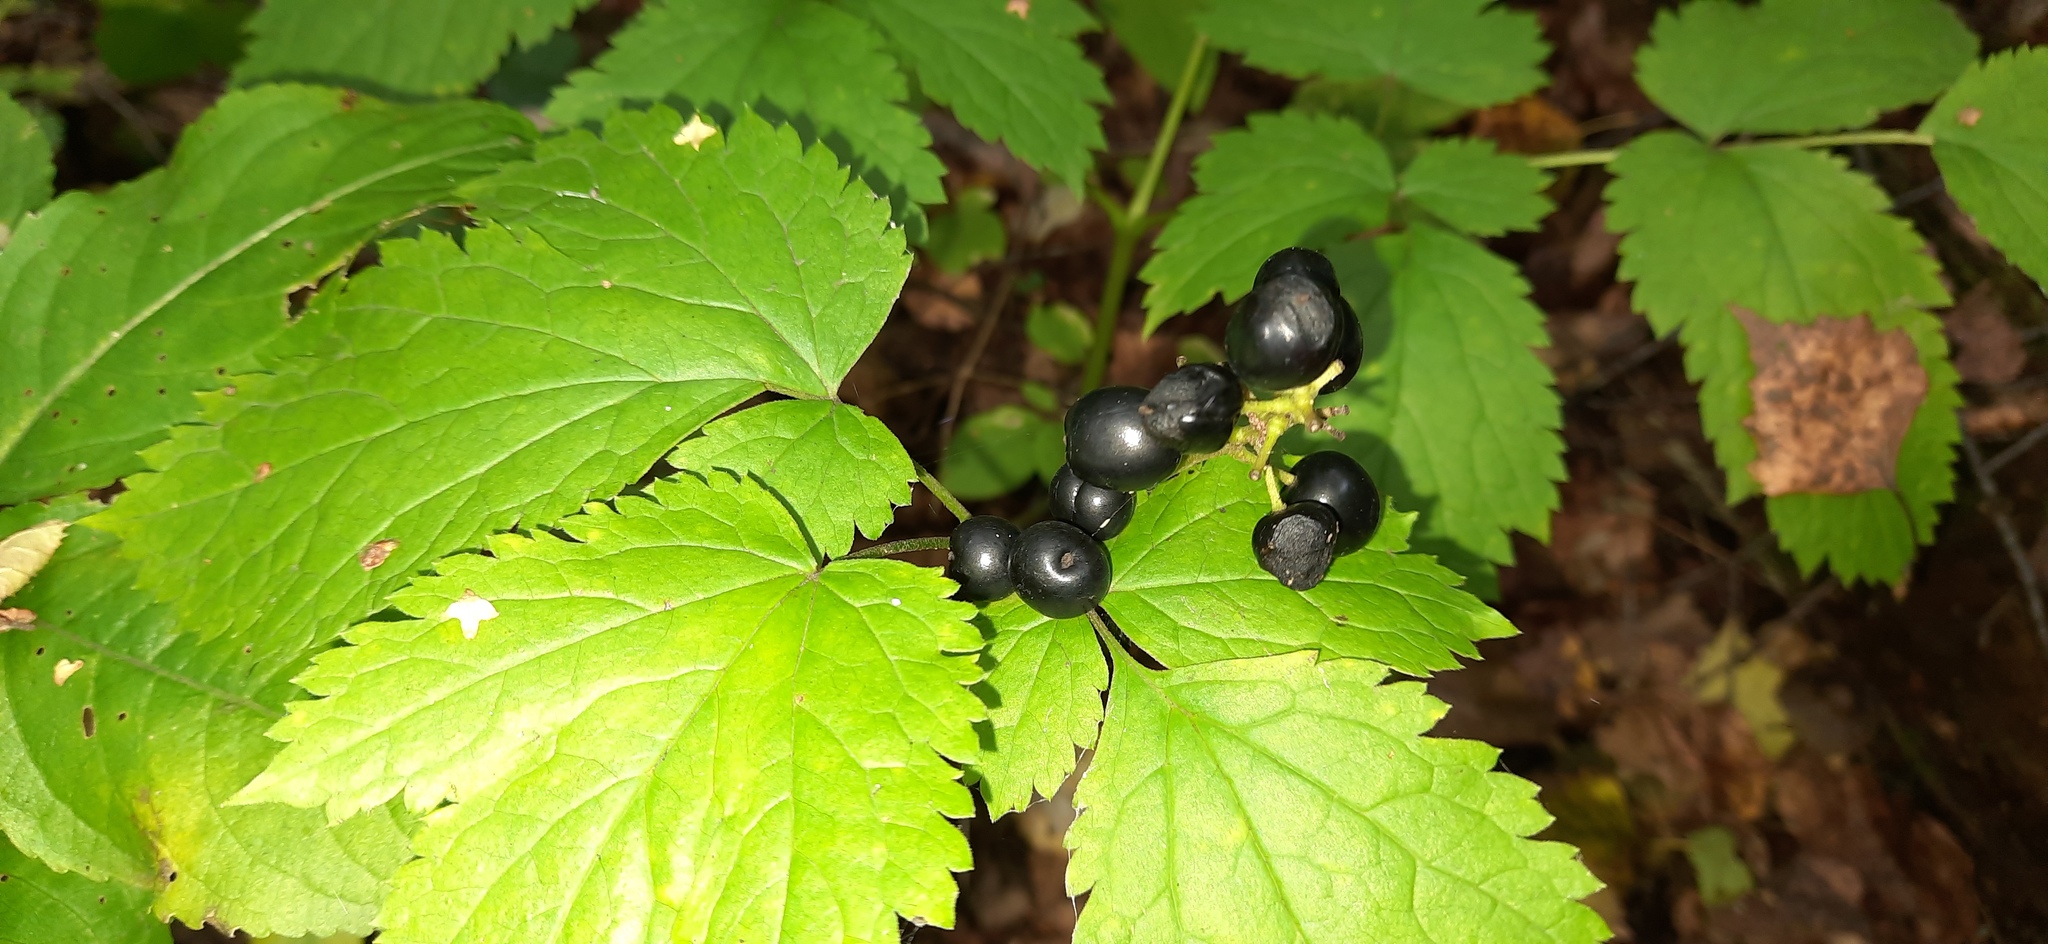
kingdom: Plantae
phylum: Tracheophyta
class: Magnoliopsida
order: Ranunculales
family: Ranunculaceae
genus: Actaea
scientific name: Actaea spicata
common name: Baneberry
